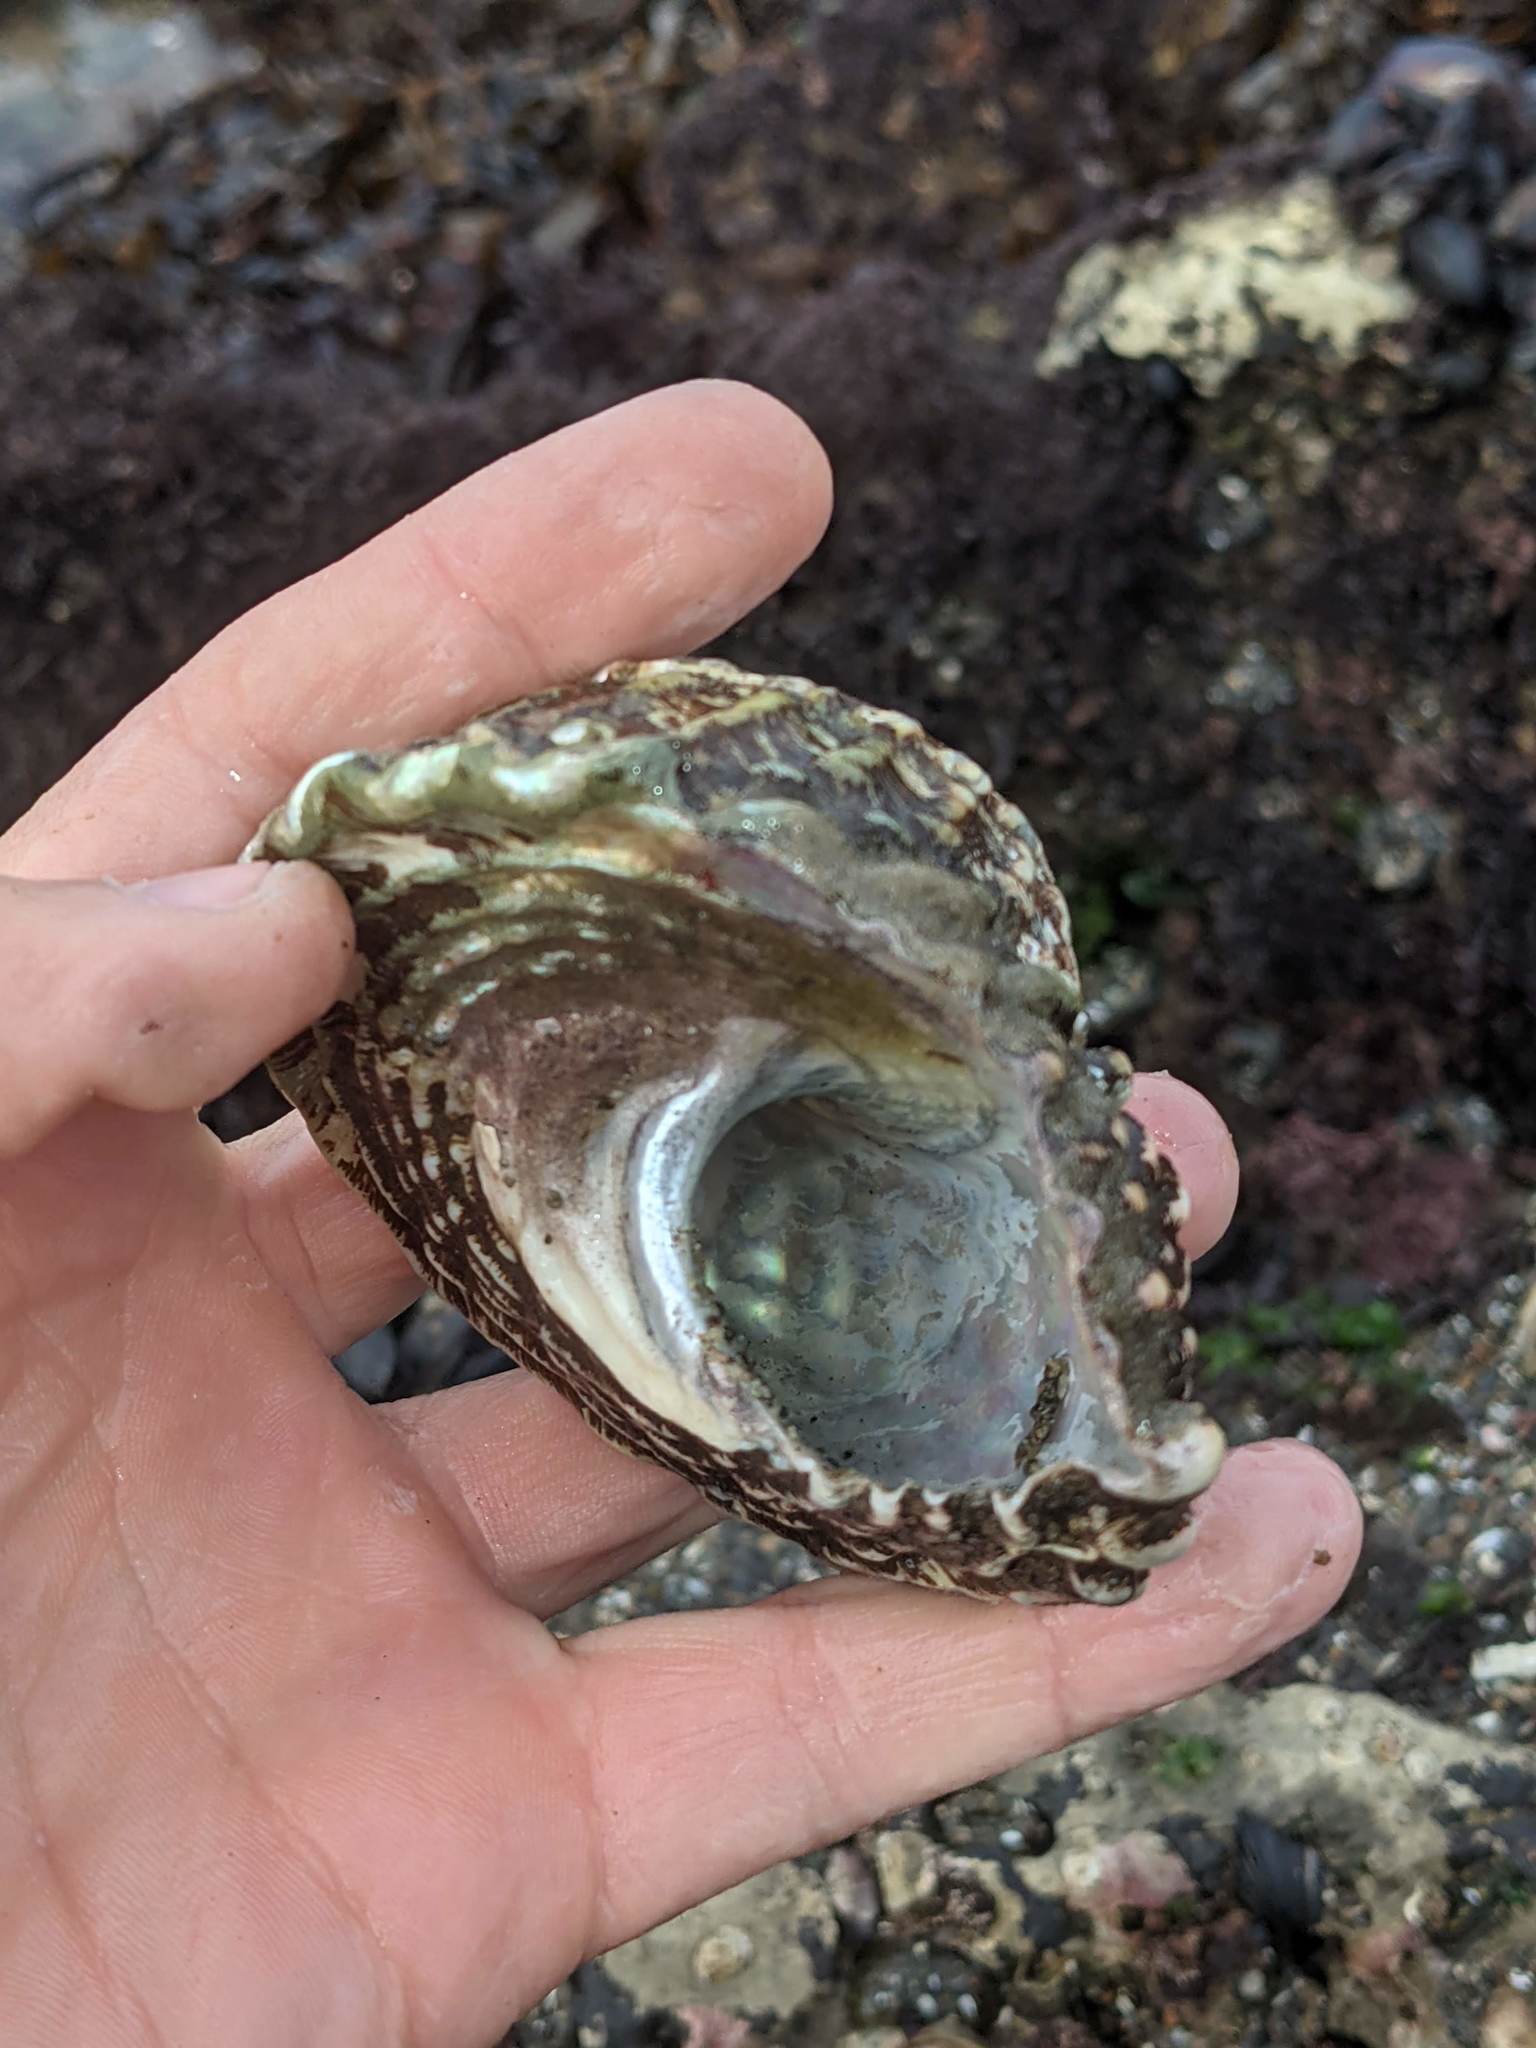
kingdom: Animalia
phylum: Mollusca
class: Gastropoda
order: Trochida
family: Turbinidae
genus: Megastraea
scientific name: Megastraea undosa
